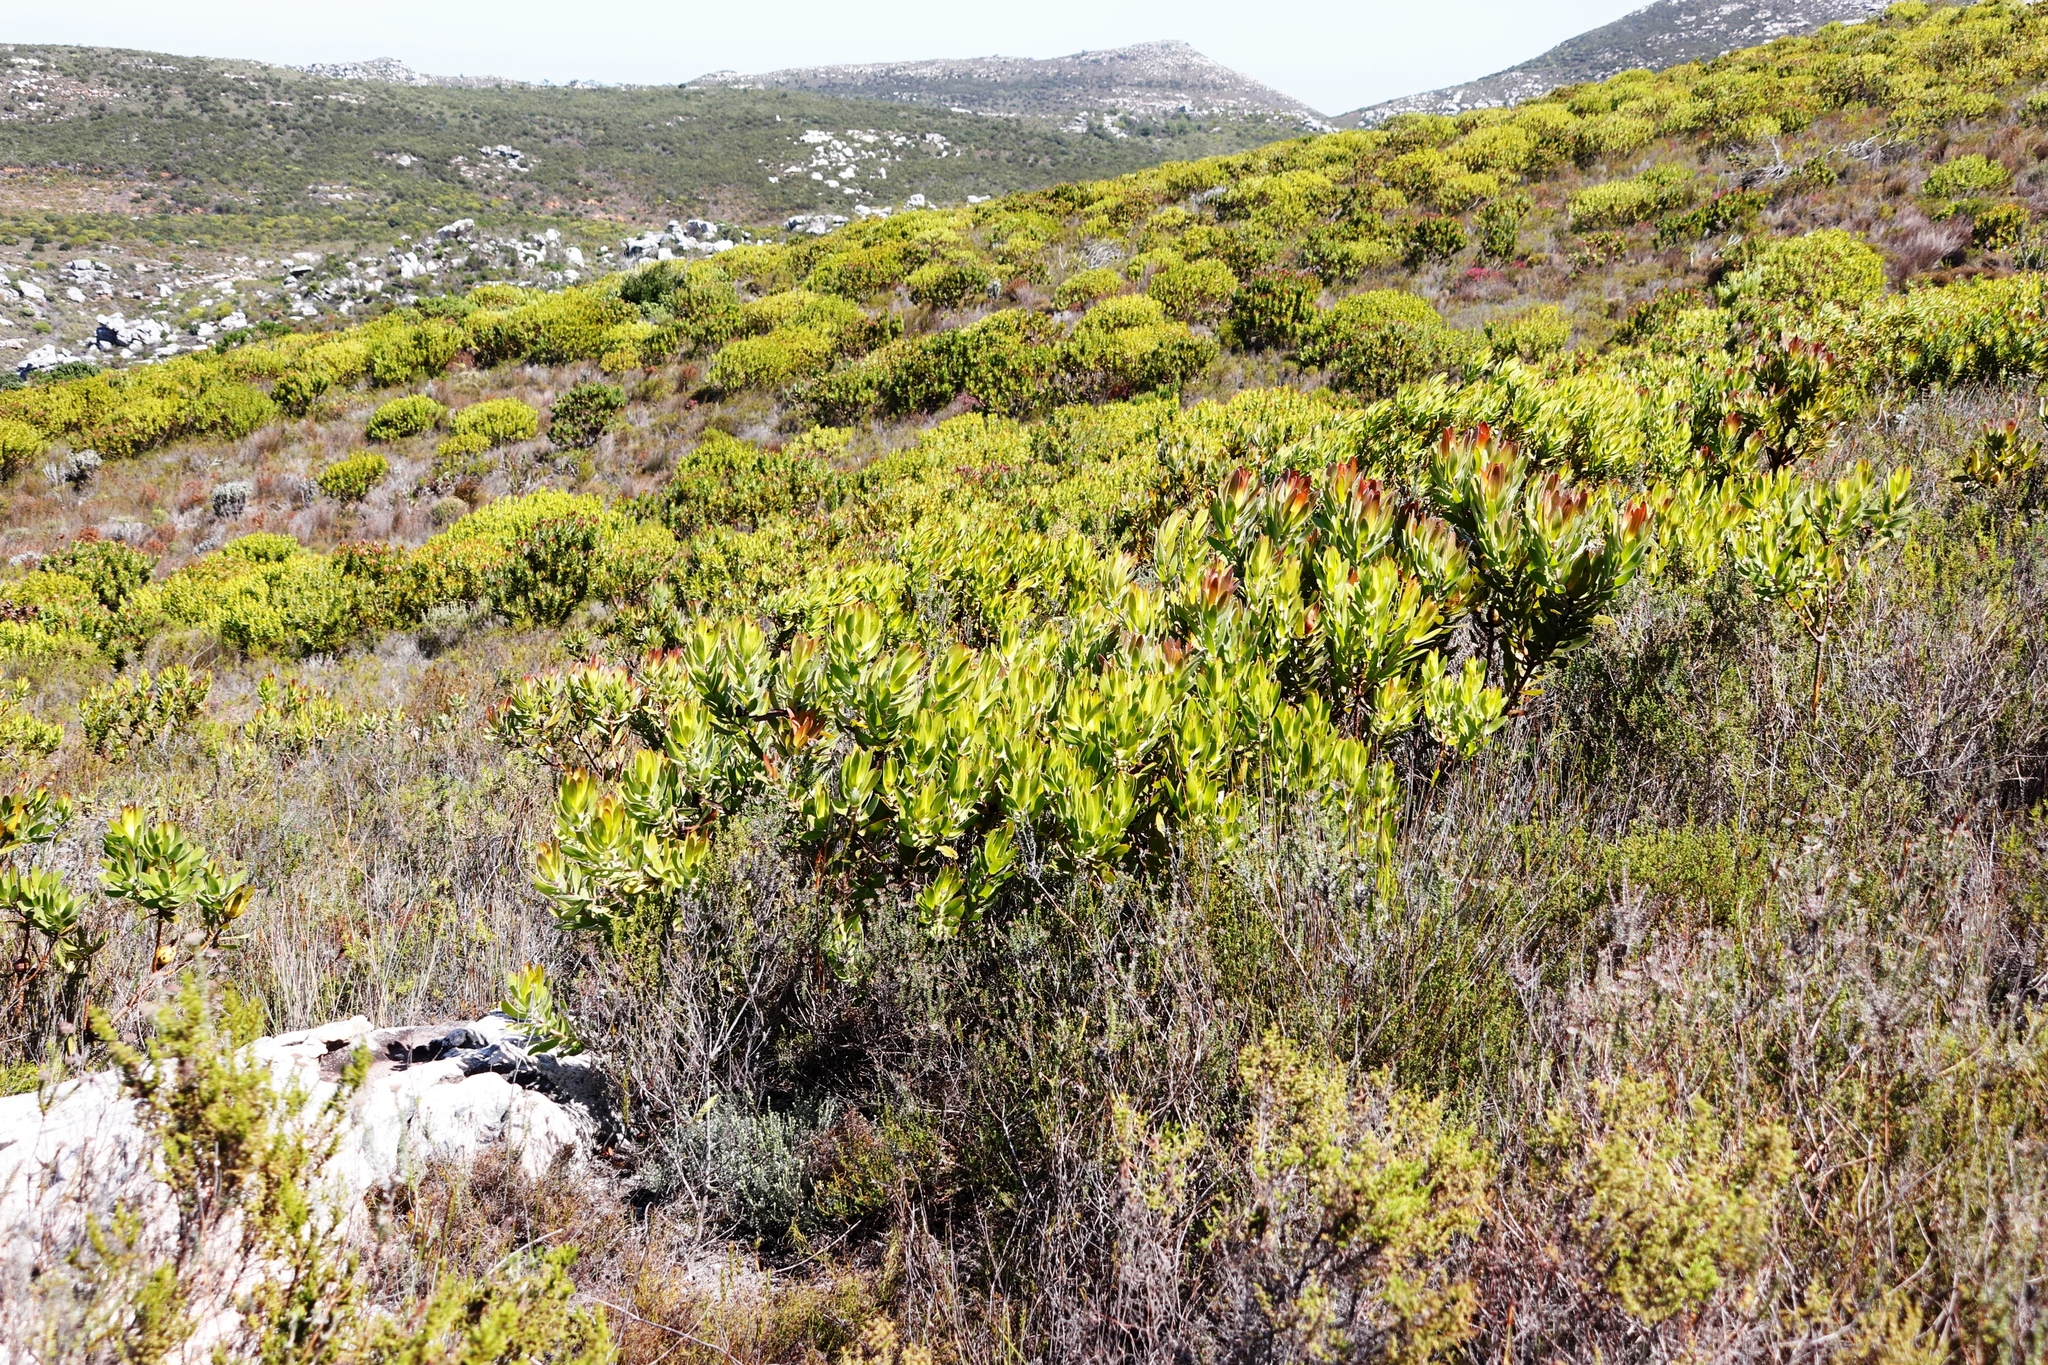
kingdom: Plantae
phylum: Tracheophyta
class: Magnoliopsida
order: Proteales
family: Proteaceae
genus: Leucadendron
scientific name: Leucadendron laureolum
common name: Golden sunshinebush
